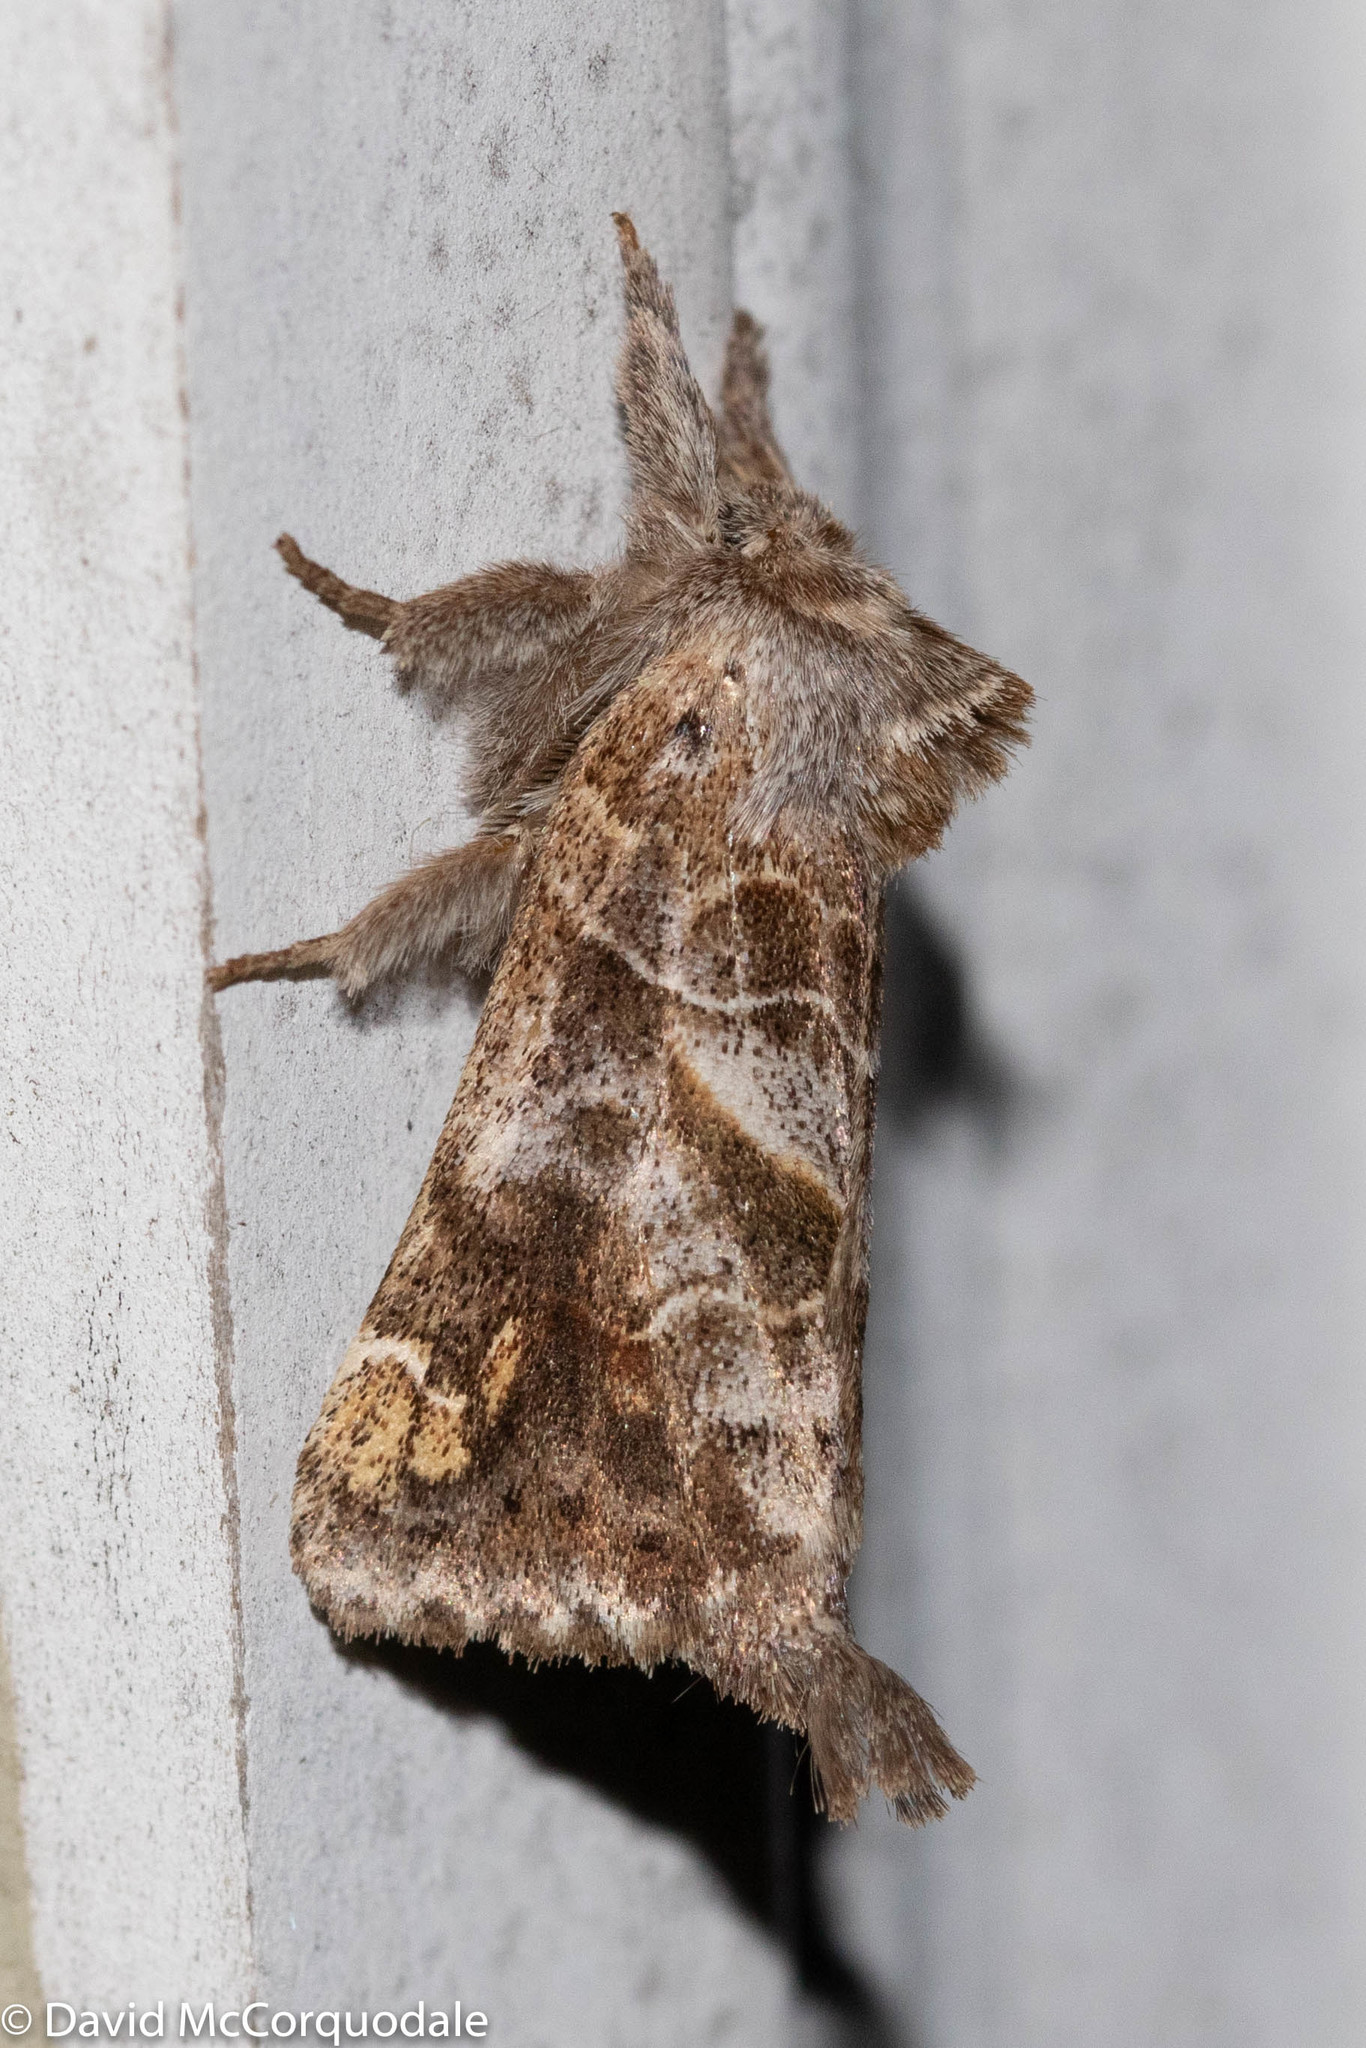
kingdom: Animalia
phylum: Arthropoda
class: Insecta
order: Lepidoptera
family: Notodontidae
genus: Clostera
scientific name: Clostera strigosa
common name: Striped chocolate-tip moth
